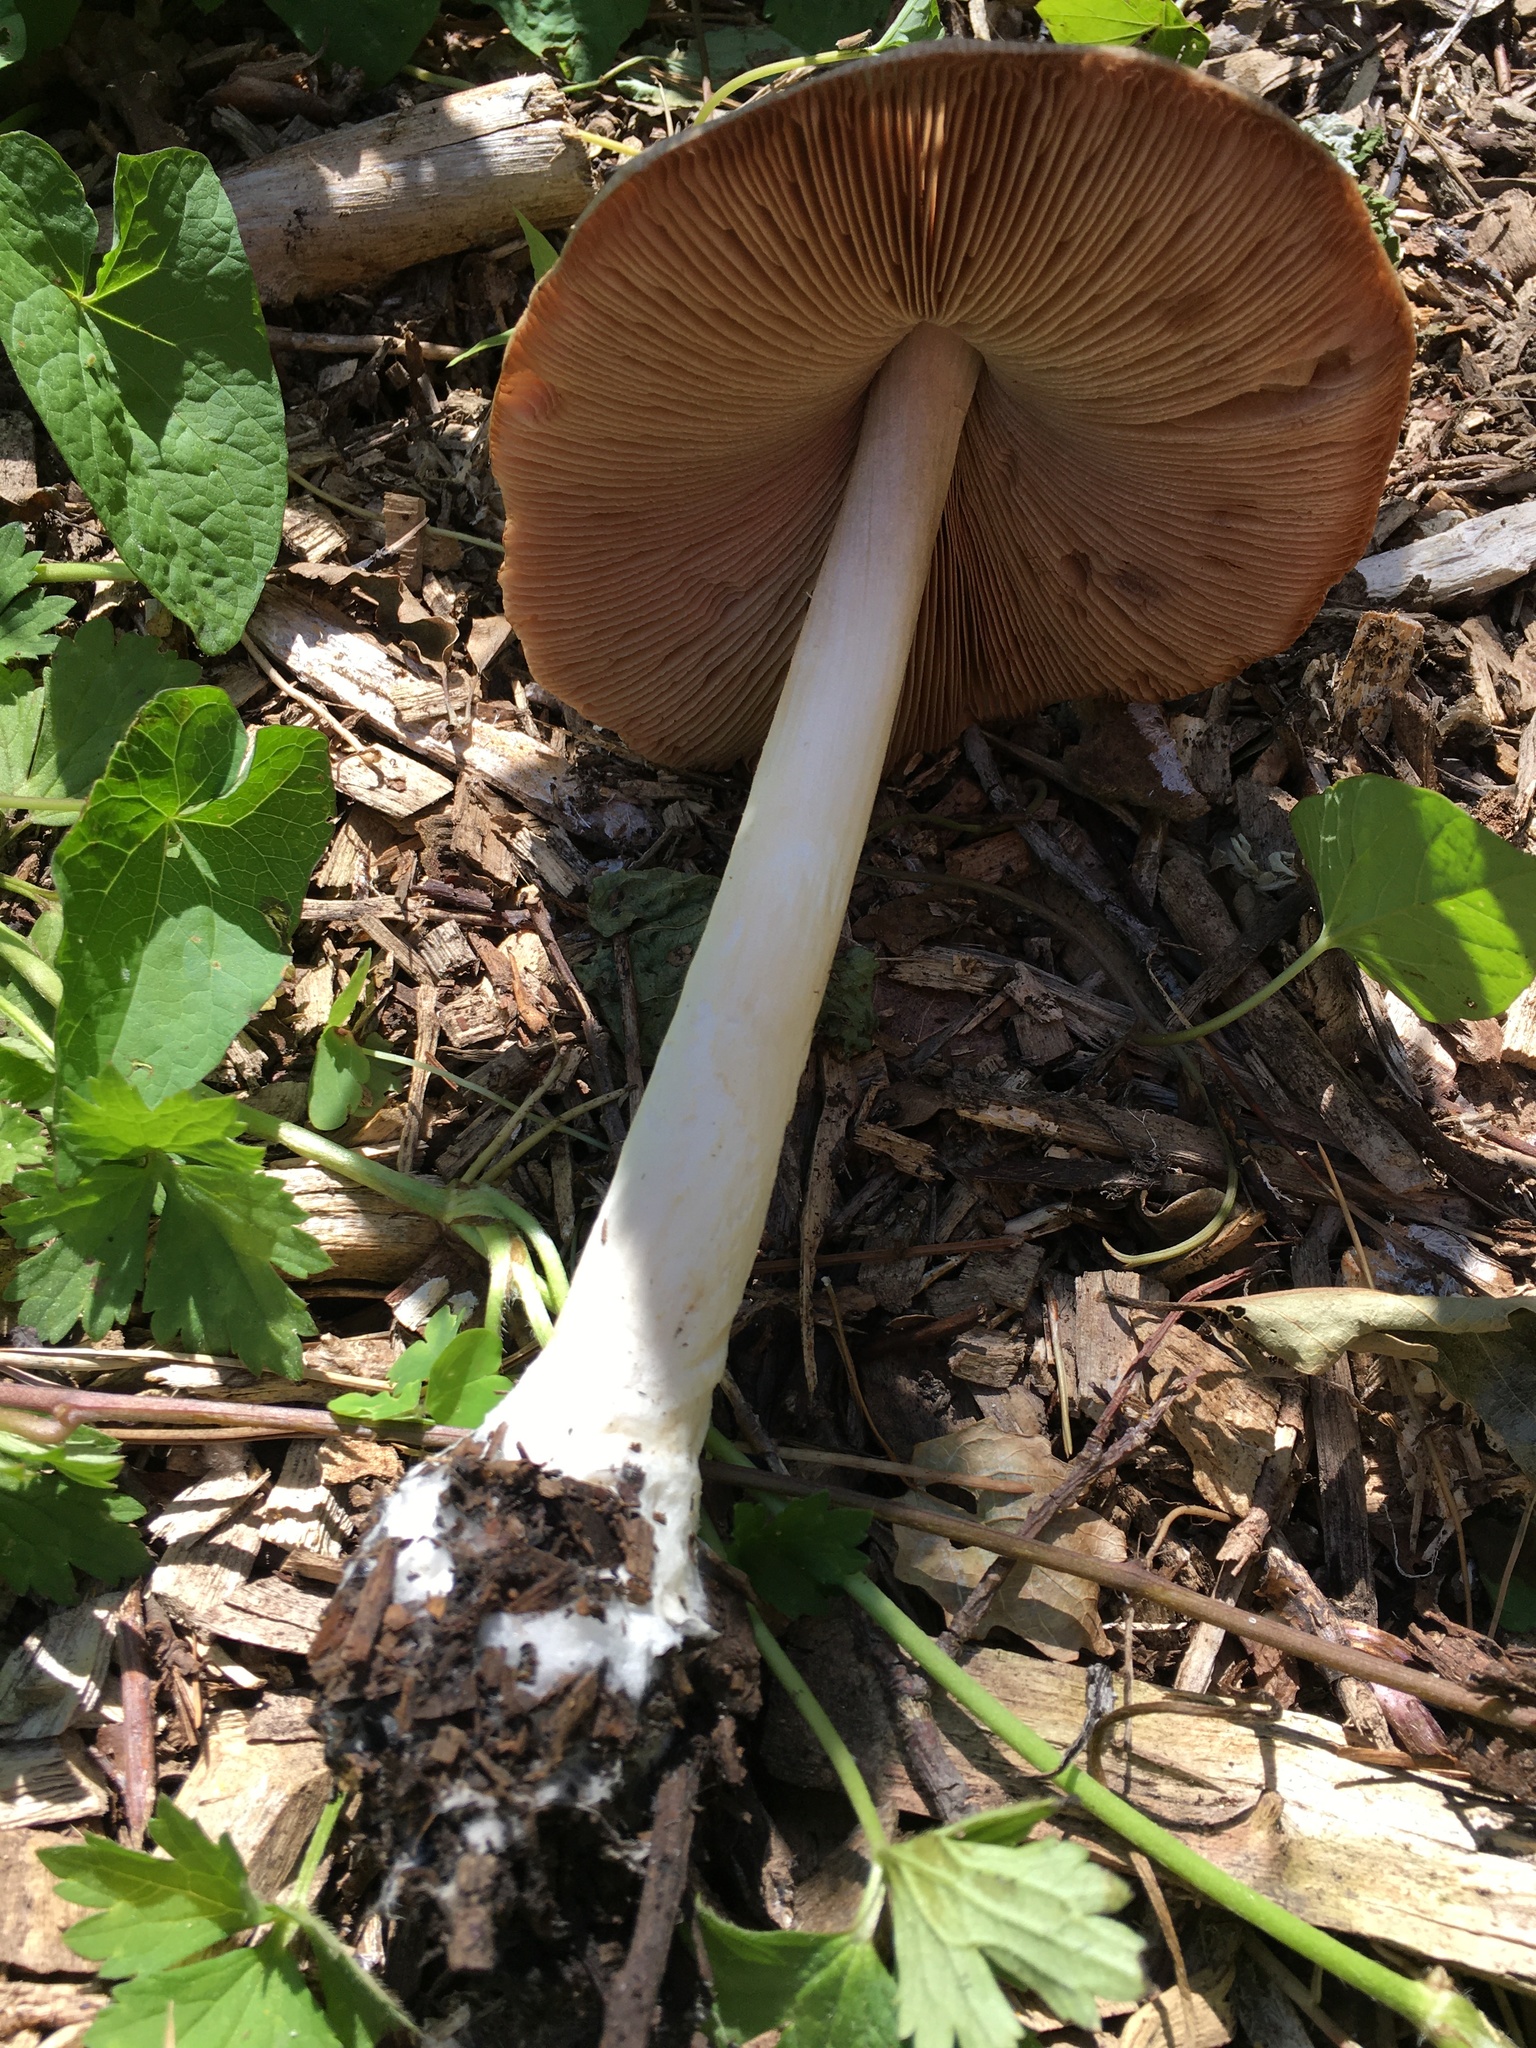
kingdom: Fungi
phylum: Basidiomycota
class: Agaricomycetes
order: Agaricales
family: Pluteaceae
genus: Volvopluteus
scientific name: Volvopluteus gloiocephalus
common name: Stubble rosegill
